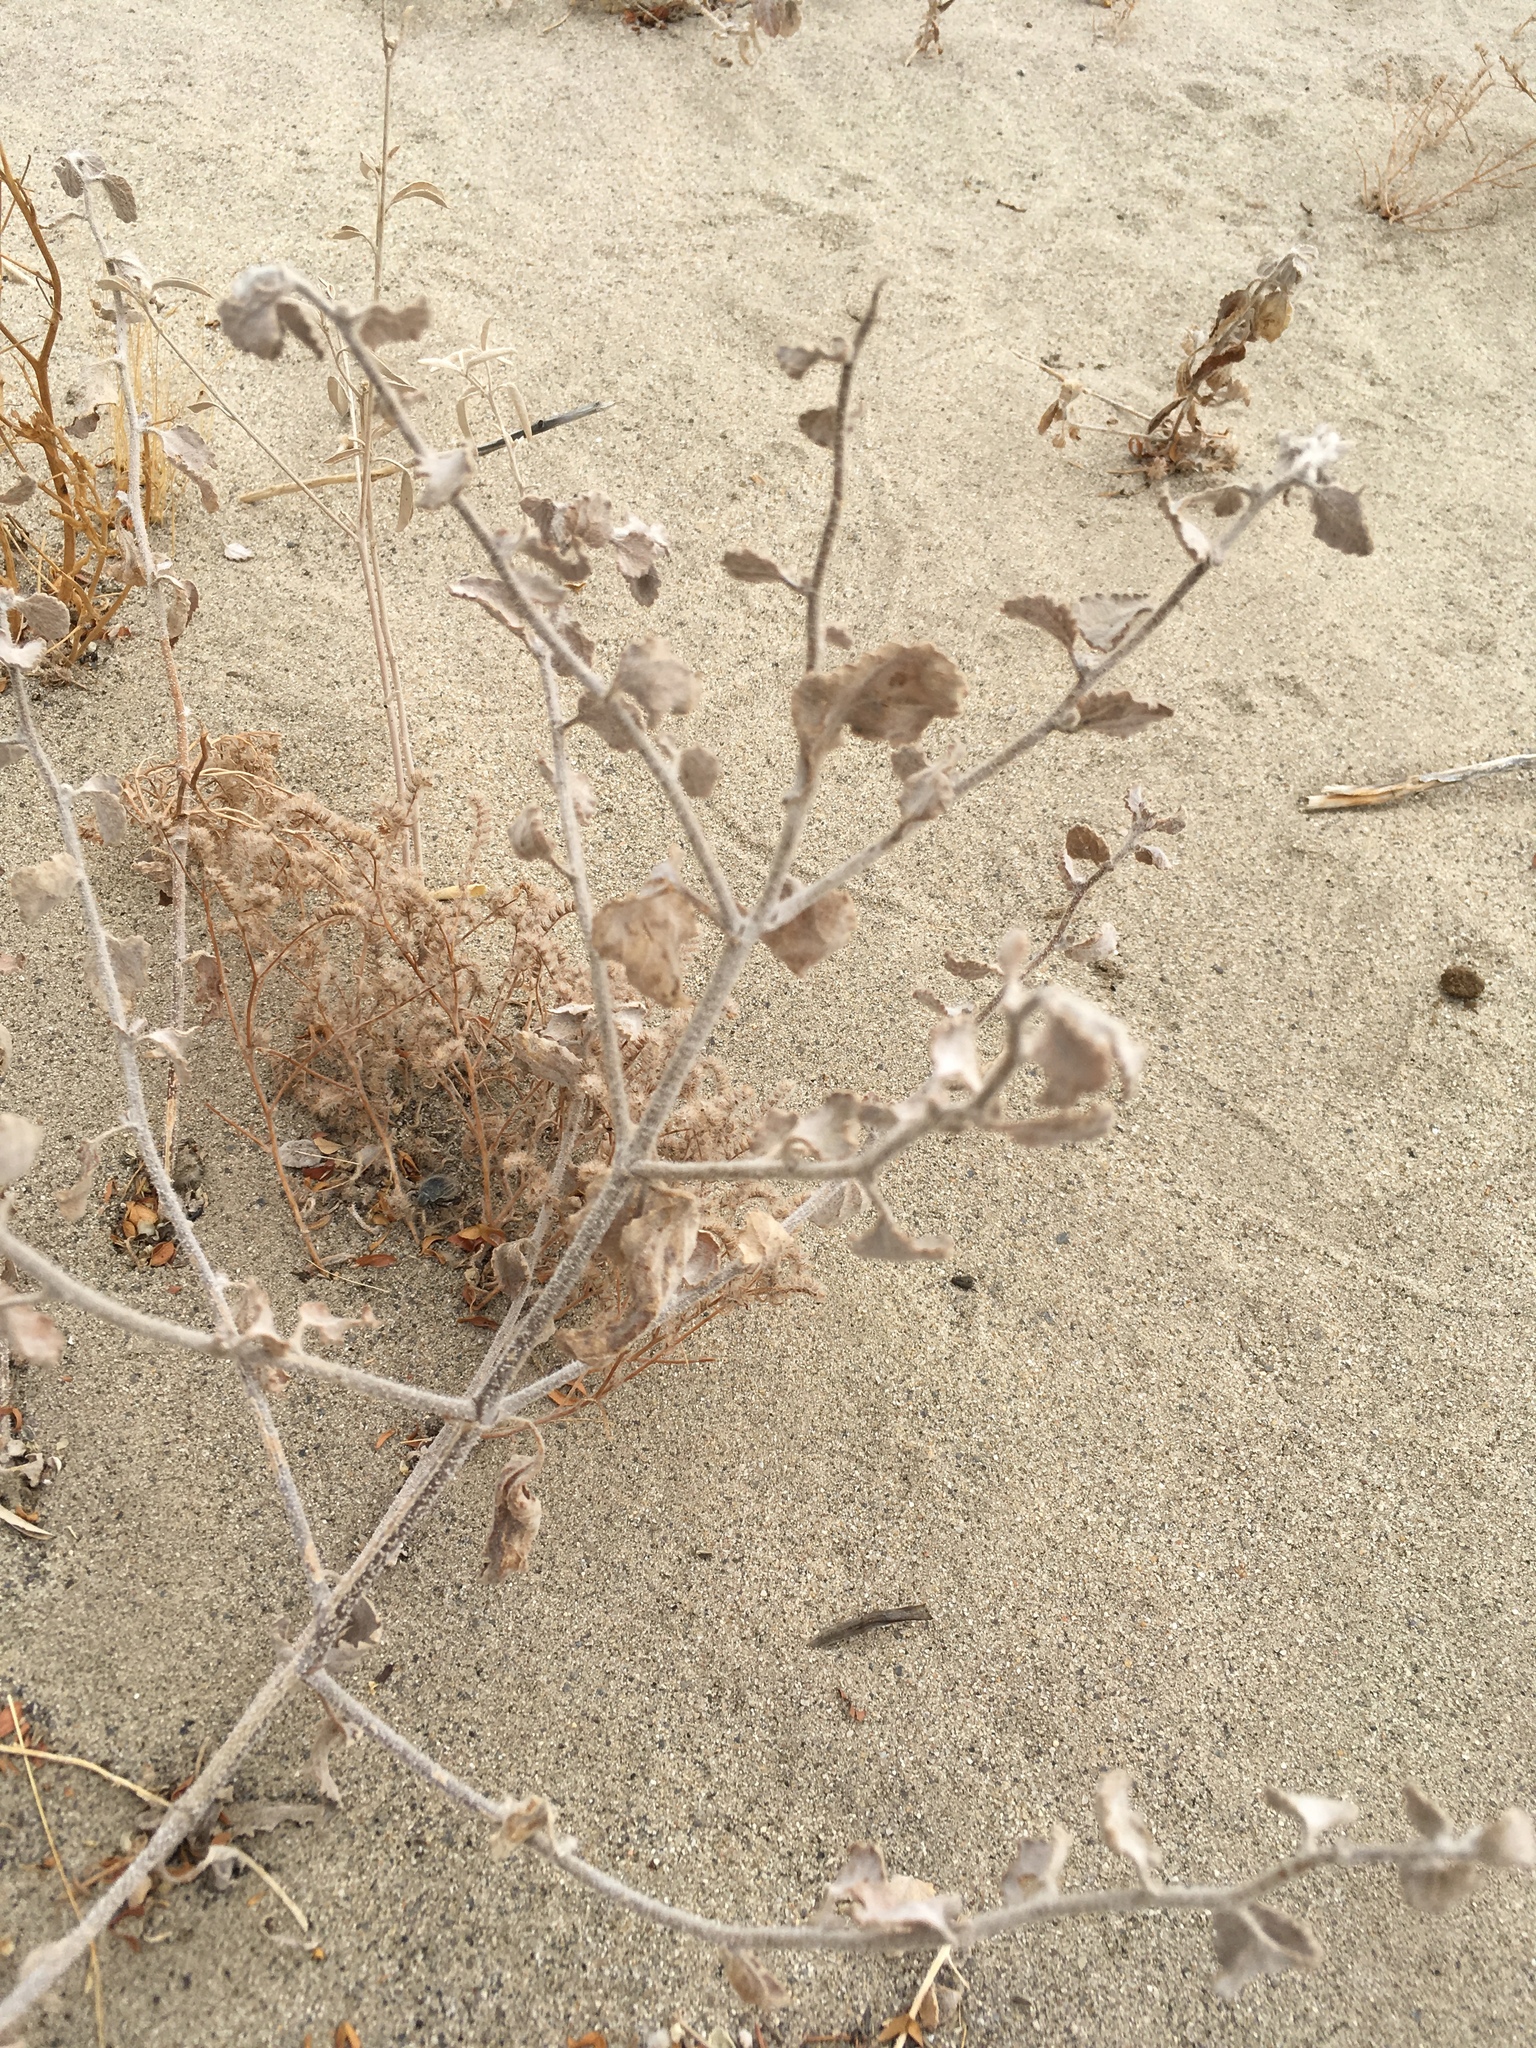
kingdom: Plantae
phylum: Tracheophyta
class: Magnoliopsida
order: Asterales
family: Asteraceae
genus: Dicoria
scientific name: Dicoria canescens
